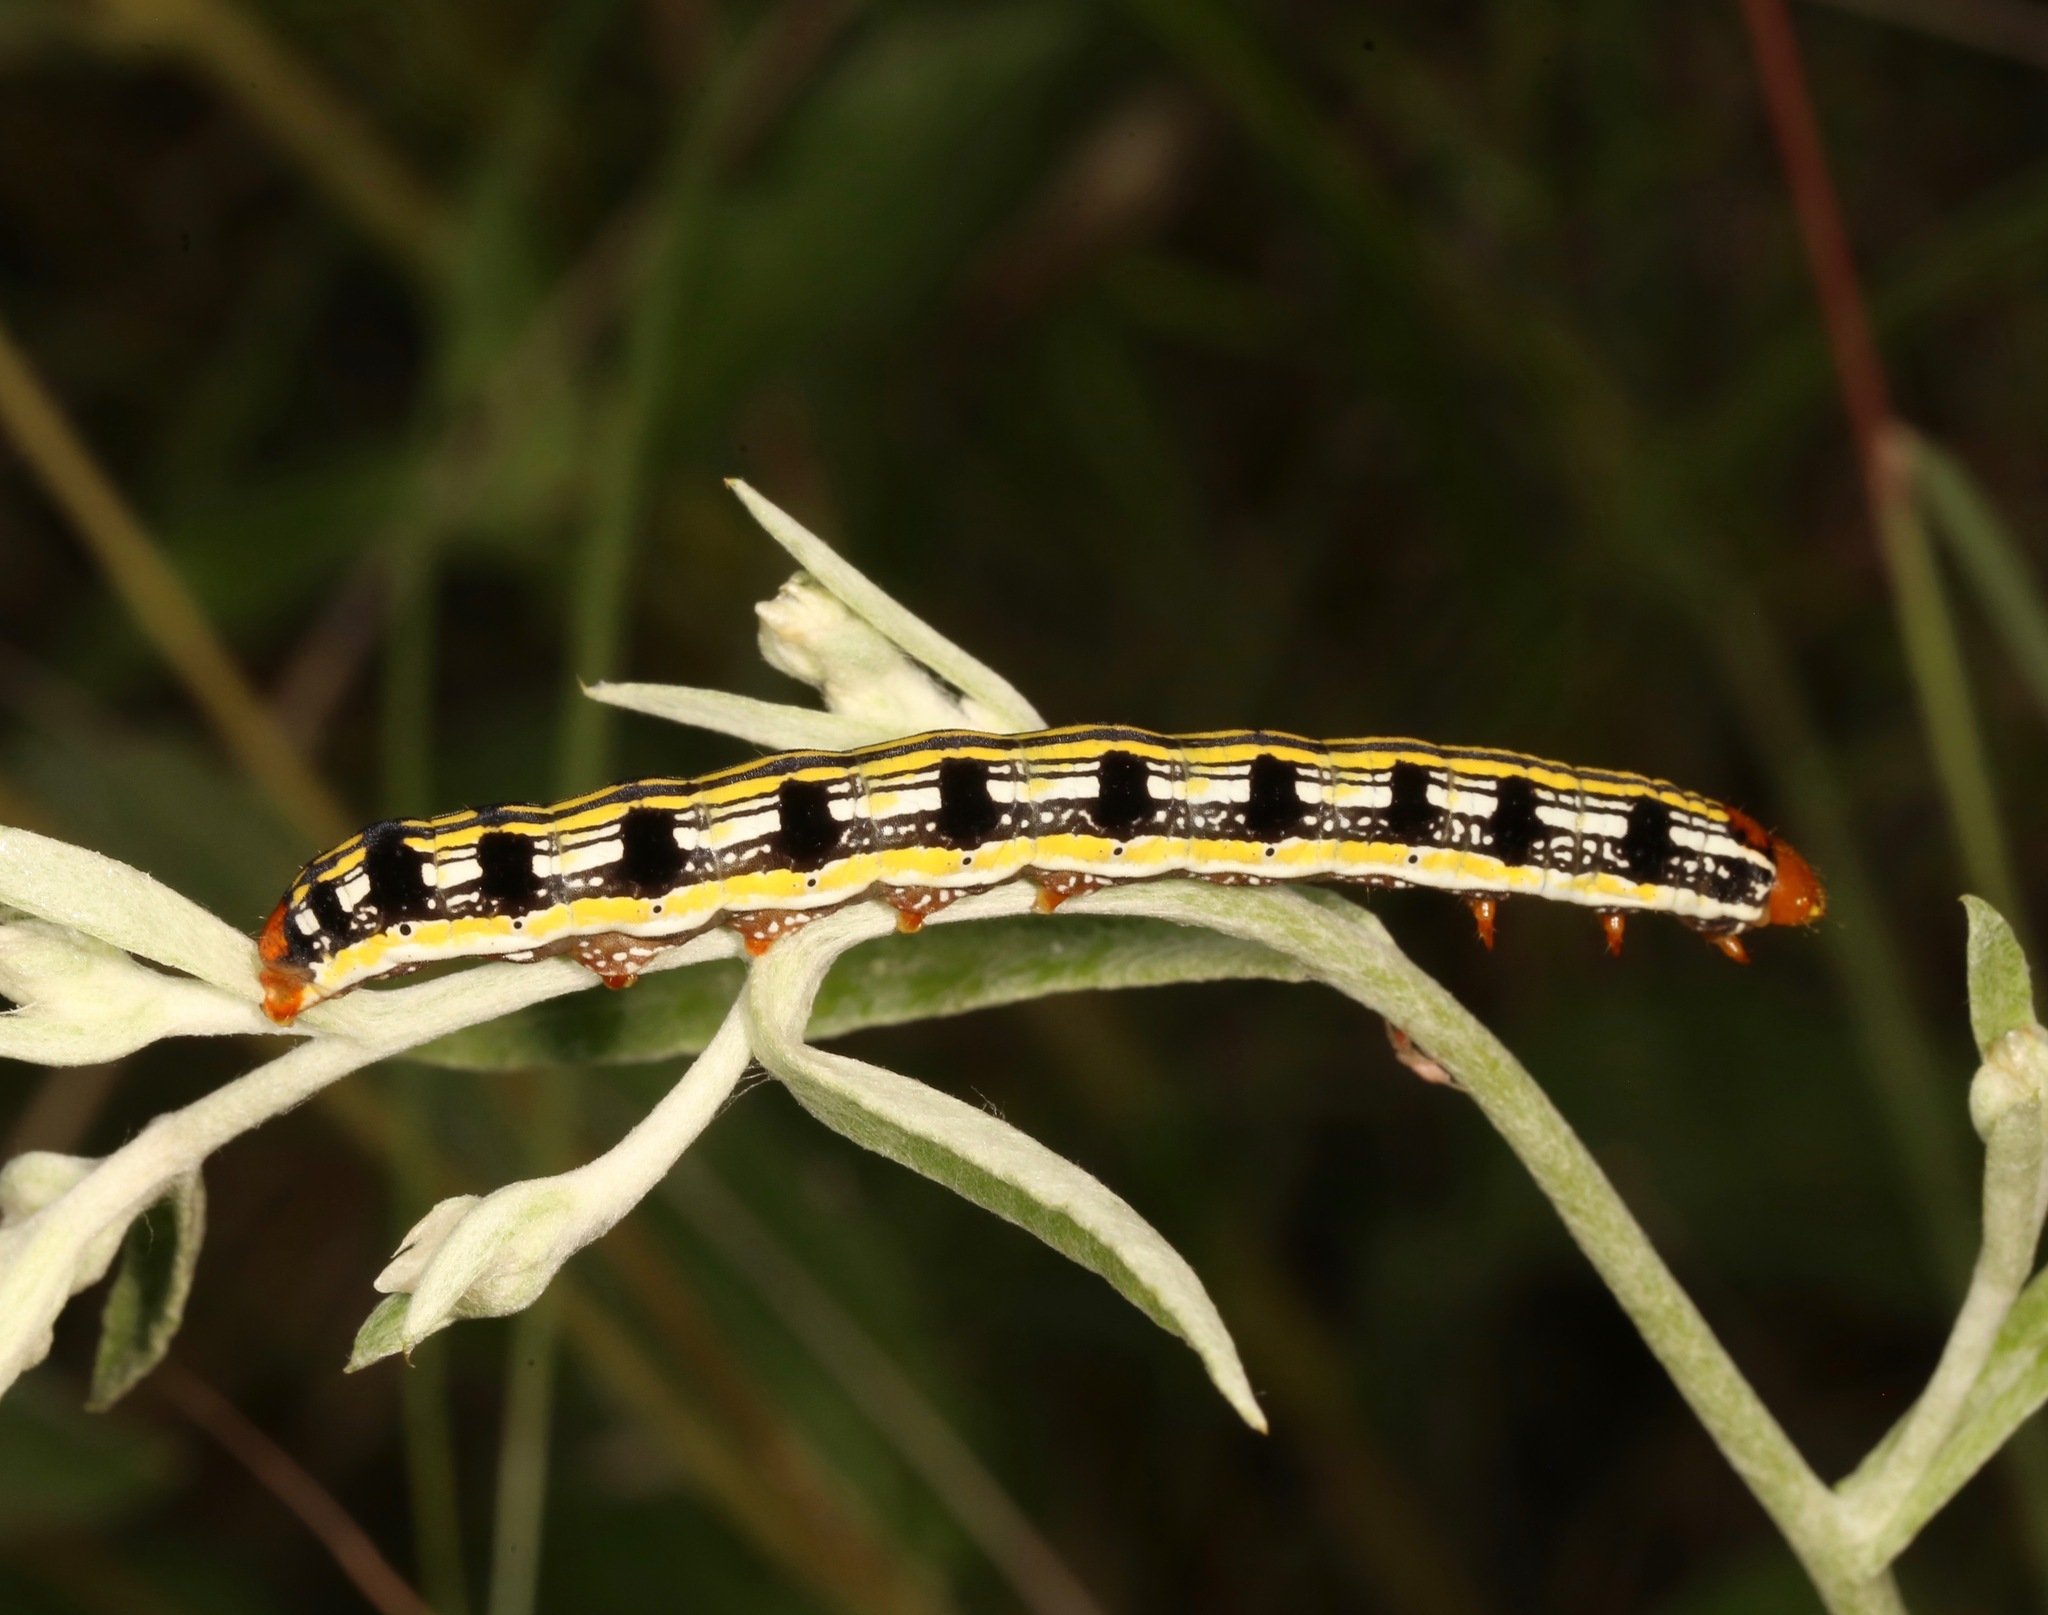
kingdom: Animalia
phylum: Arthropoda
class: Insecta
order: Lepidoptera
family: Noctuidae
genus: Schinia
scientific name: Schinia mexicana
